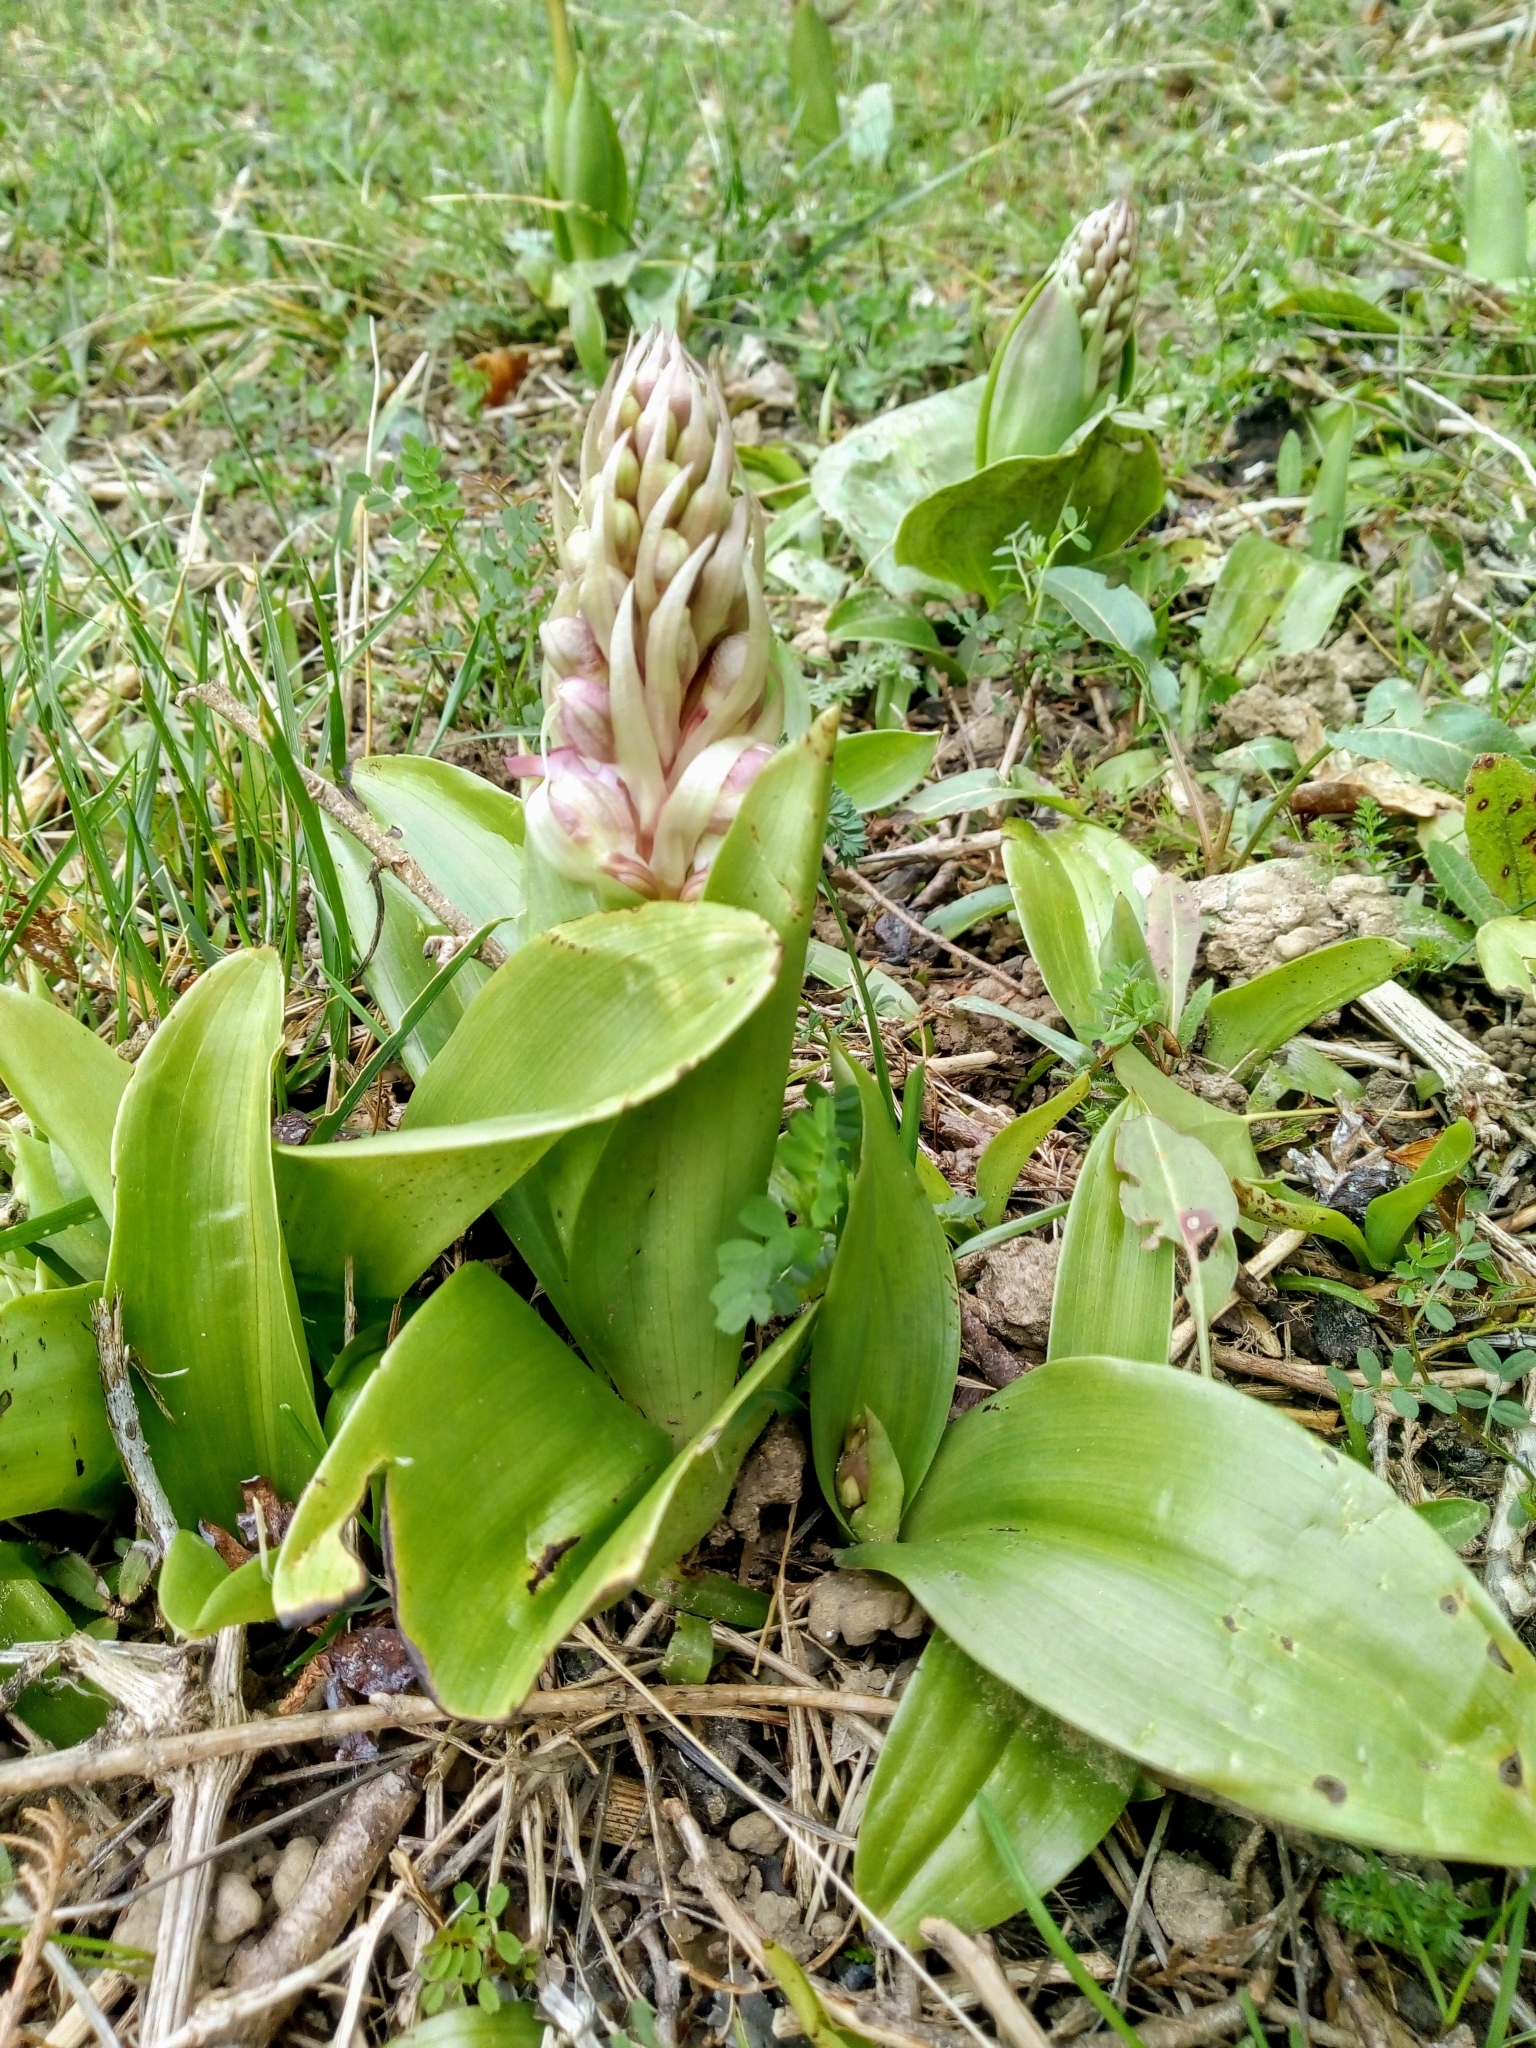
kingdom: Plantae
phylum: Tracheophyta
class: Liliopsida
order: Asparagales
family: Orchidaceae
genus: Himantoglossum
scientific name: Himantoglossum robertianum
